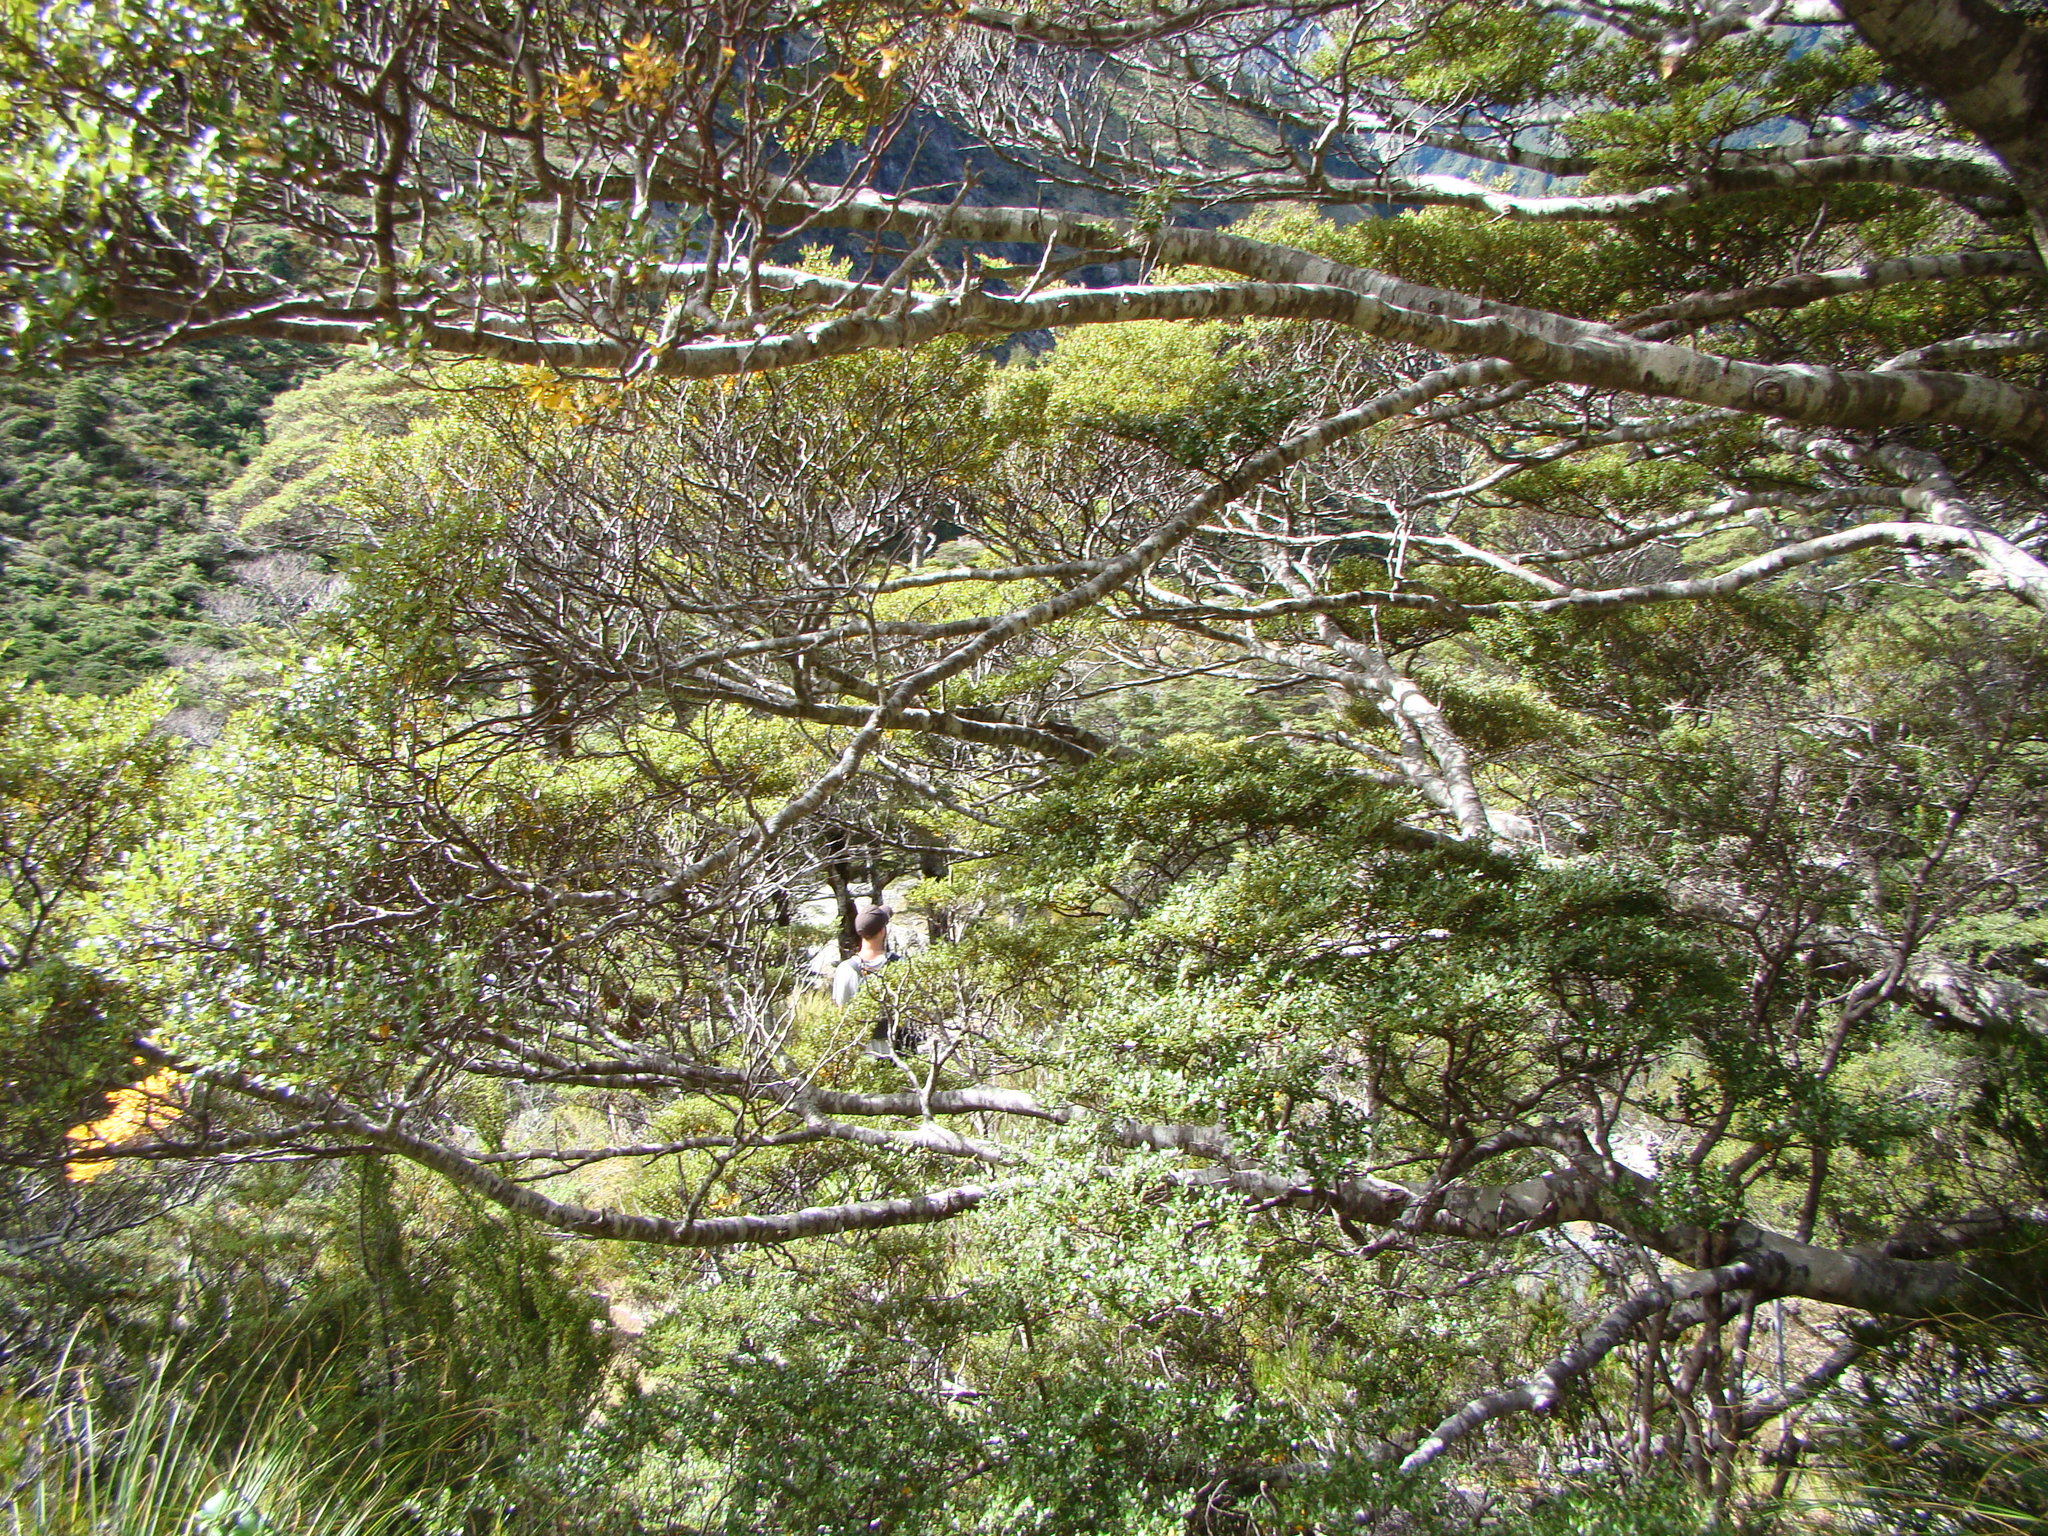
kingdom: Plantae
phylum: Tracheophyta
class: Magnoliopsida
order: Fagales
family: Nothofagaceae
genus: Nothofagus
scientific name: Nothofagus cliffortioides
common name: Mountain beech
